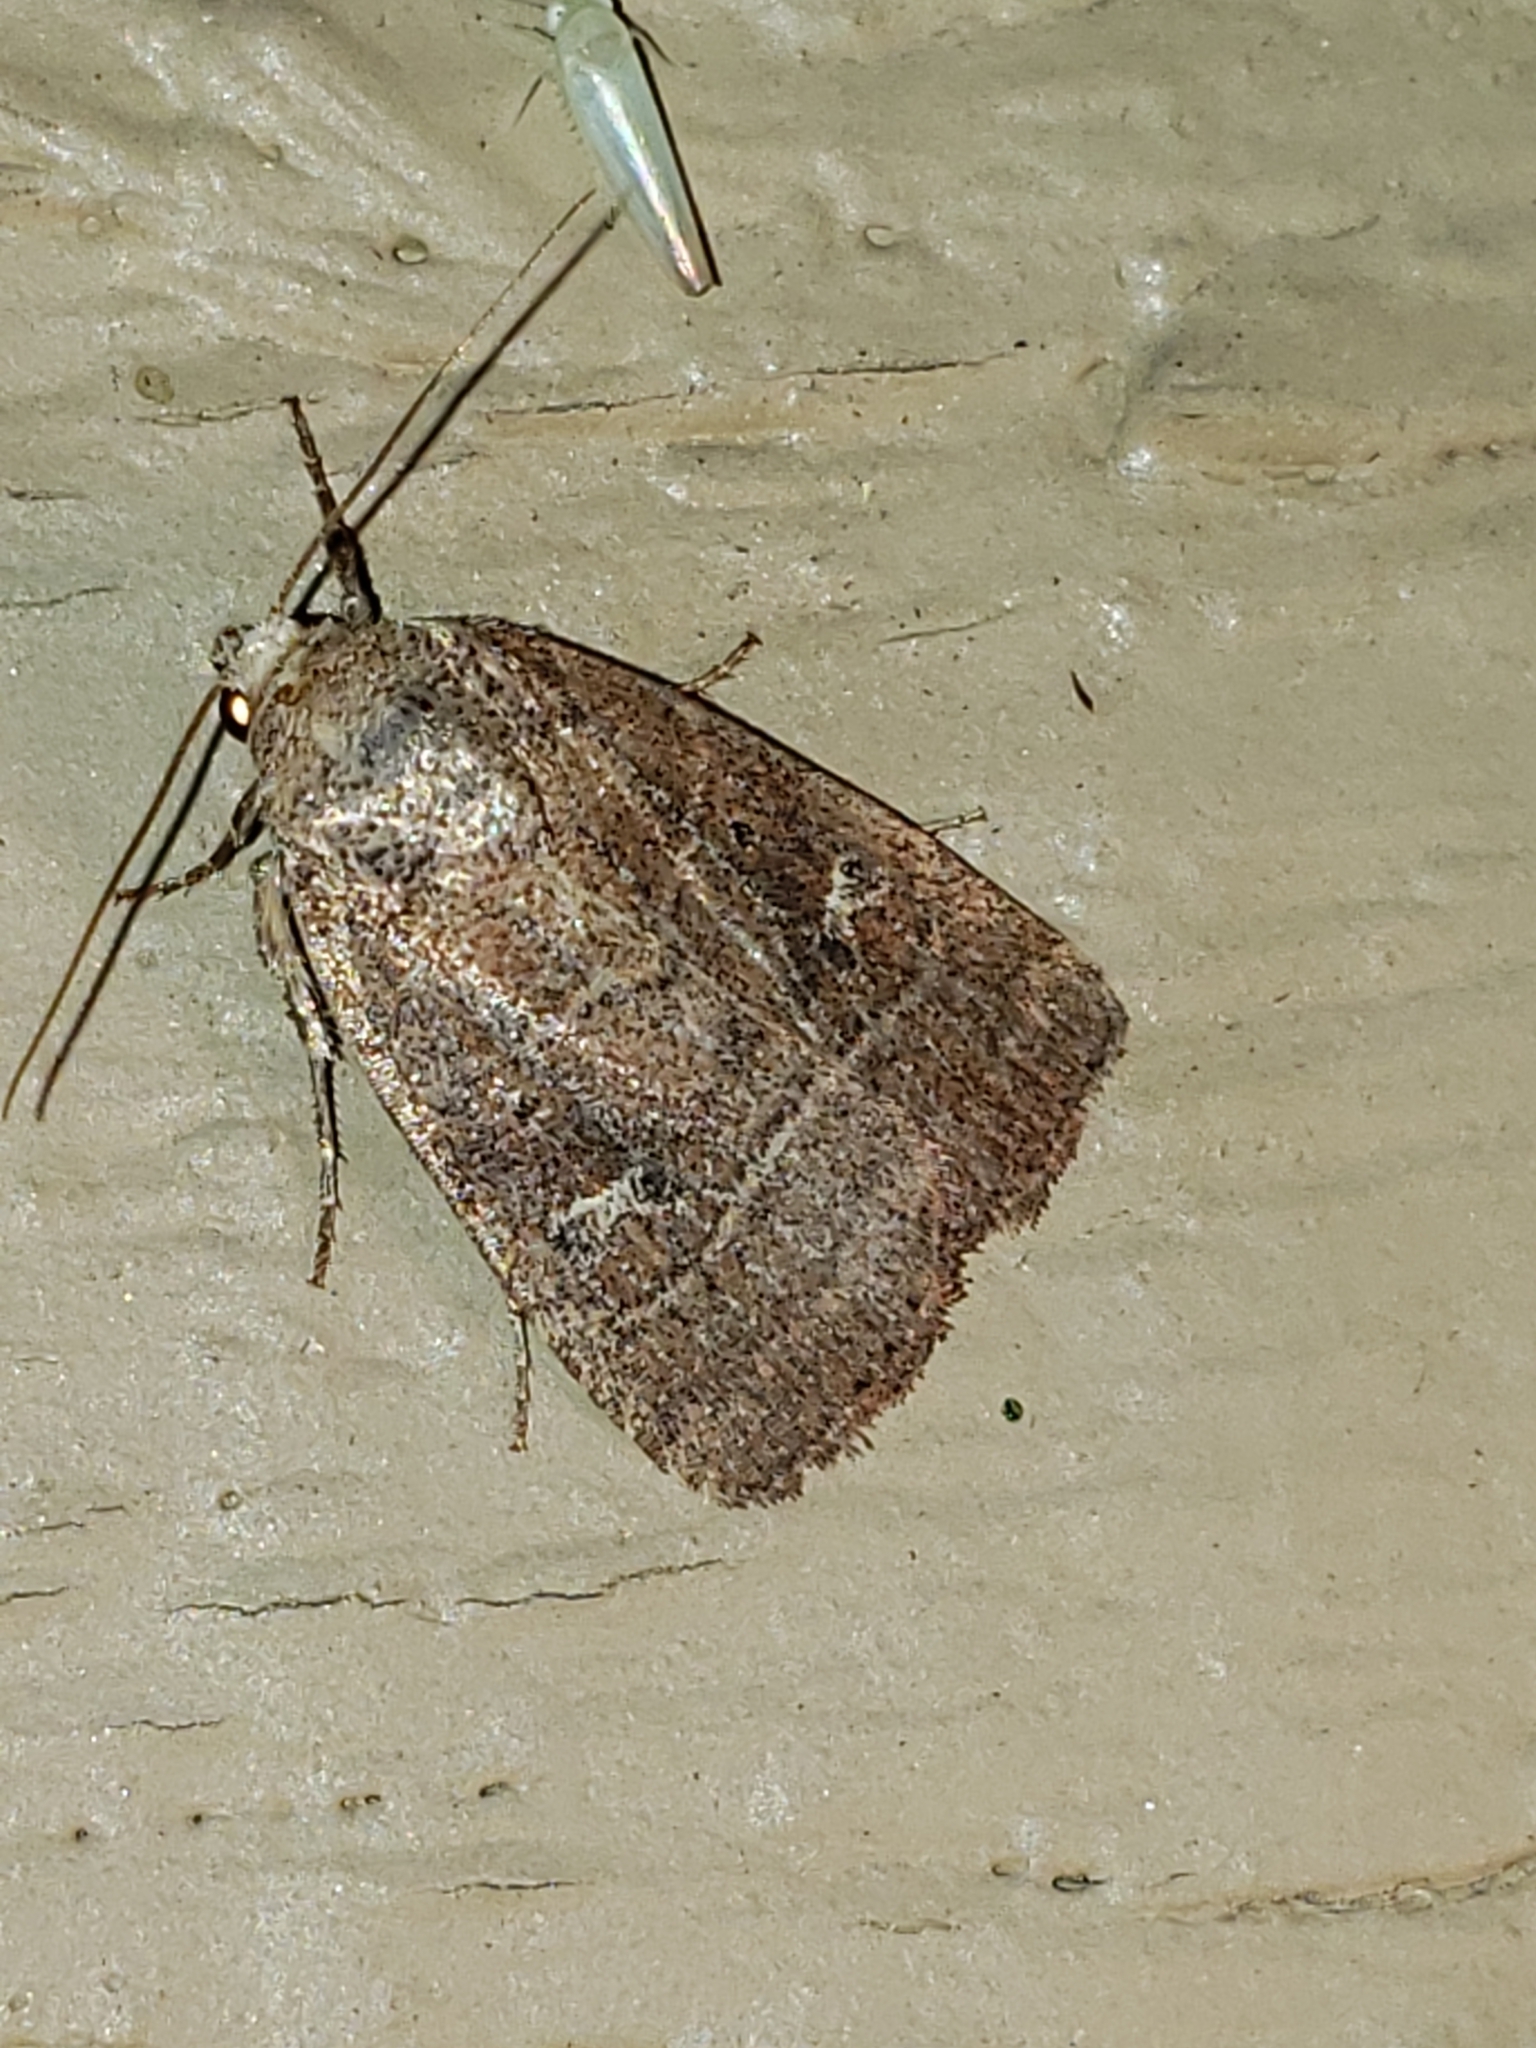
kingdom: Animalia
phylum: Arthropoda
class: Insecta
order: Lepidoptera
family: Noctuidae
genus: Elaphria
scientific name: Elaphria grata
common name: Grateful midget moth
